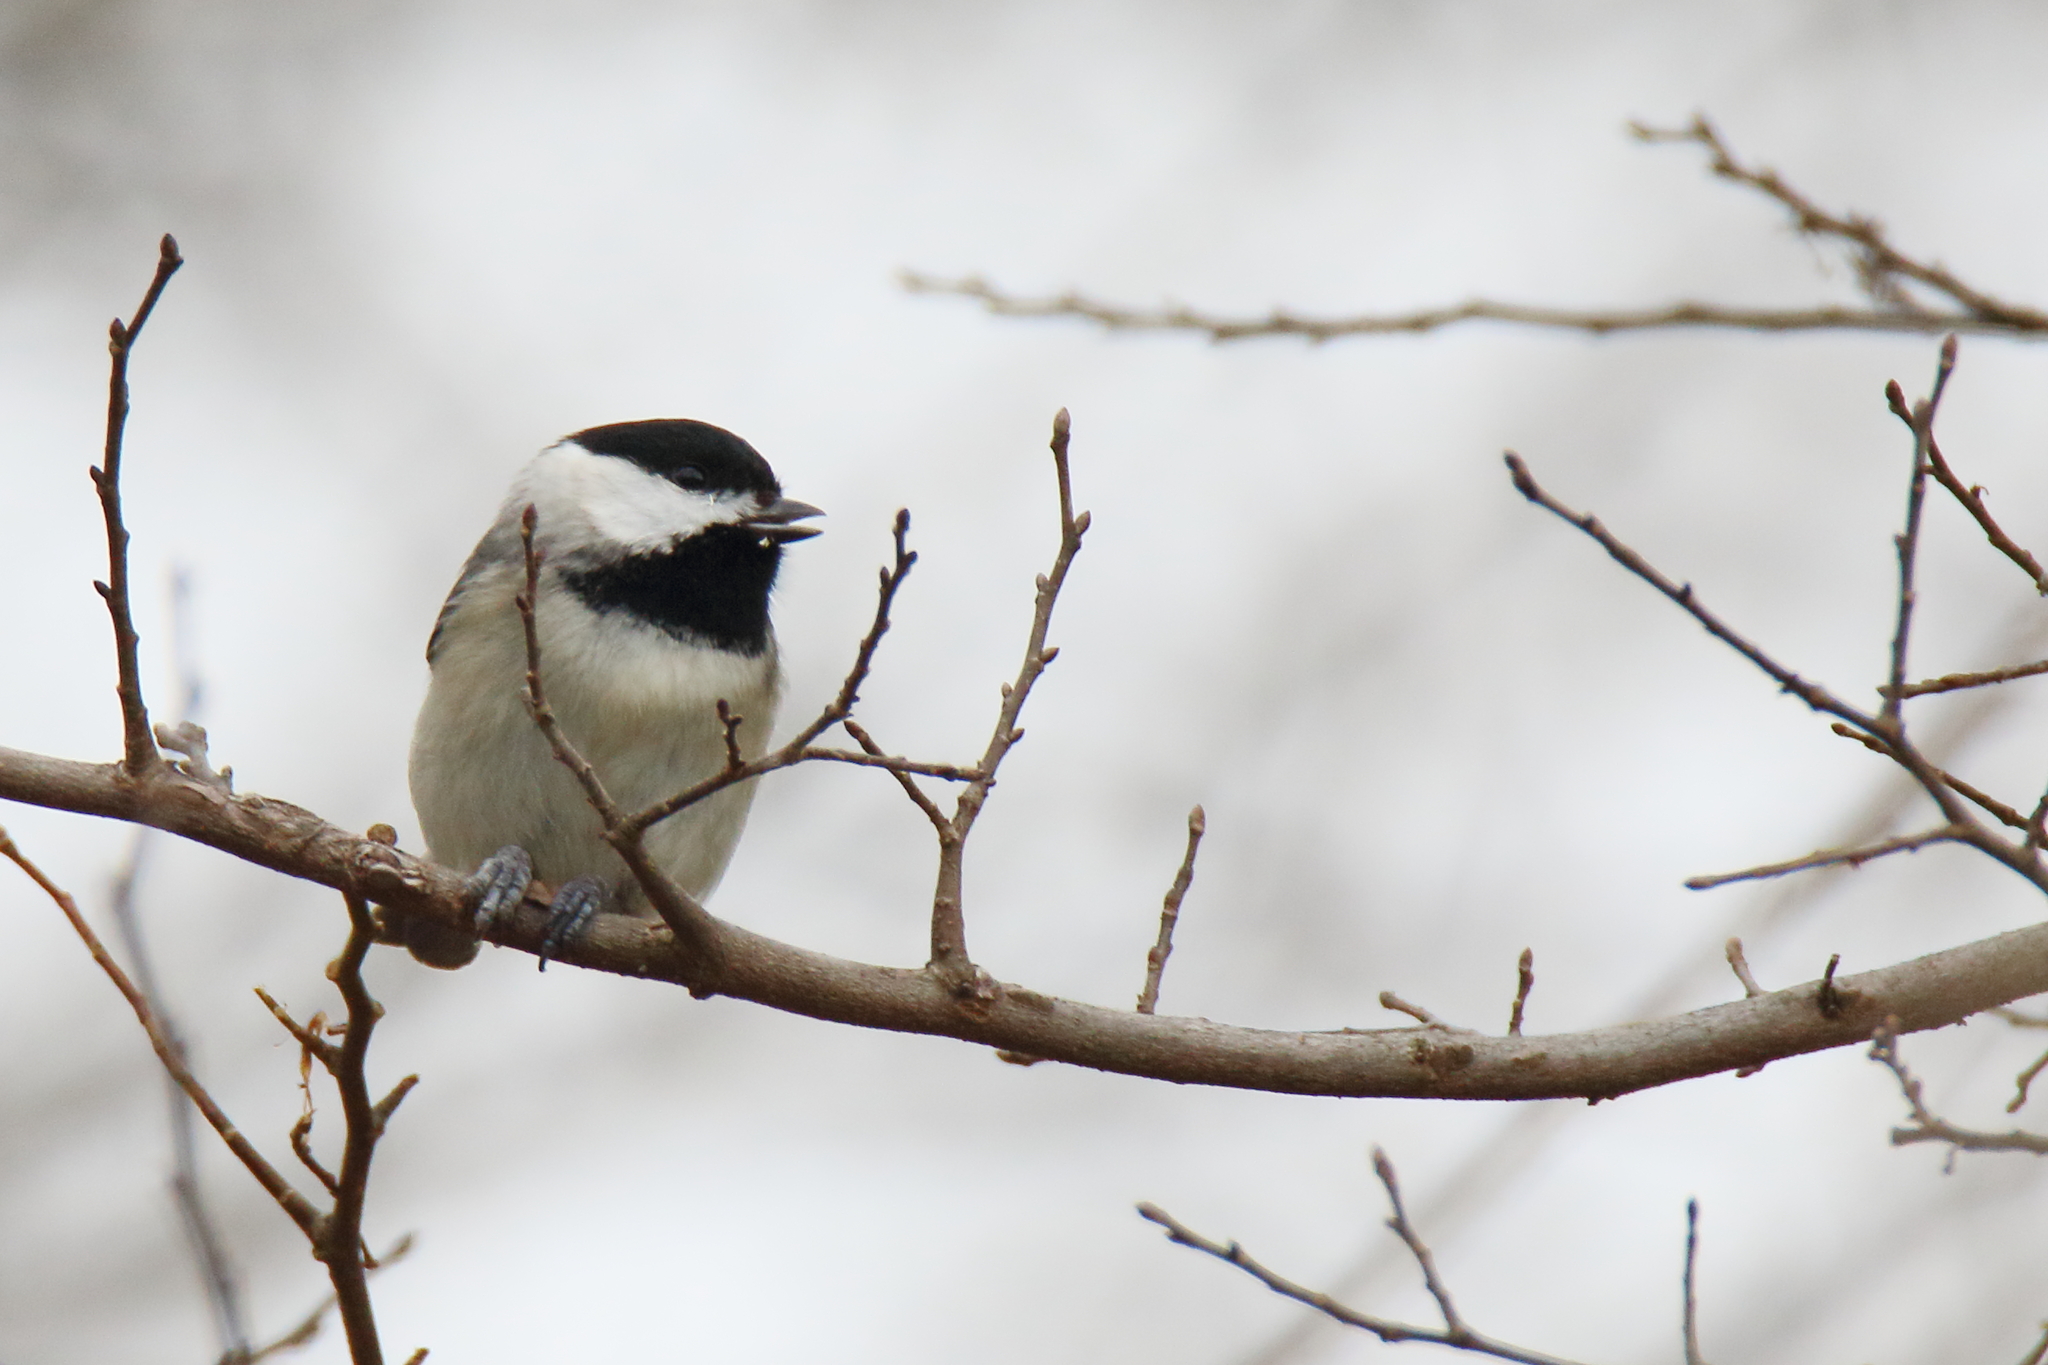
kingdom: Animalia
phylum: Chordata
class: Aves
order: Passeriformes
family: Paridae
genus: Poecile
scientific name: Poecile carolinensis
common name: Carolina chickadee
